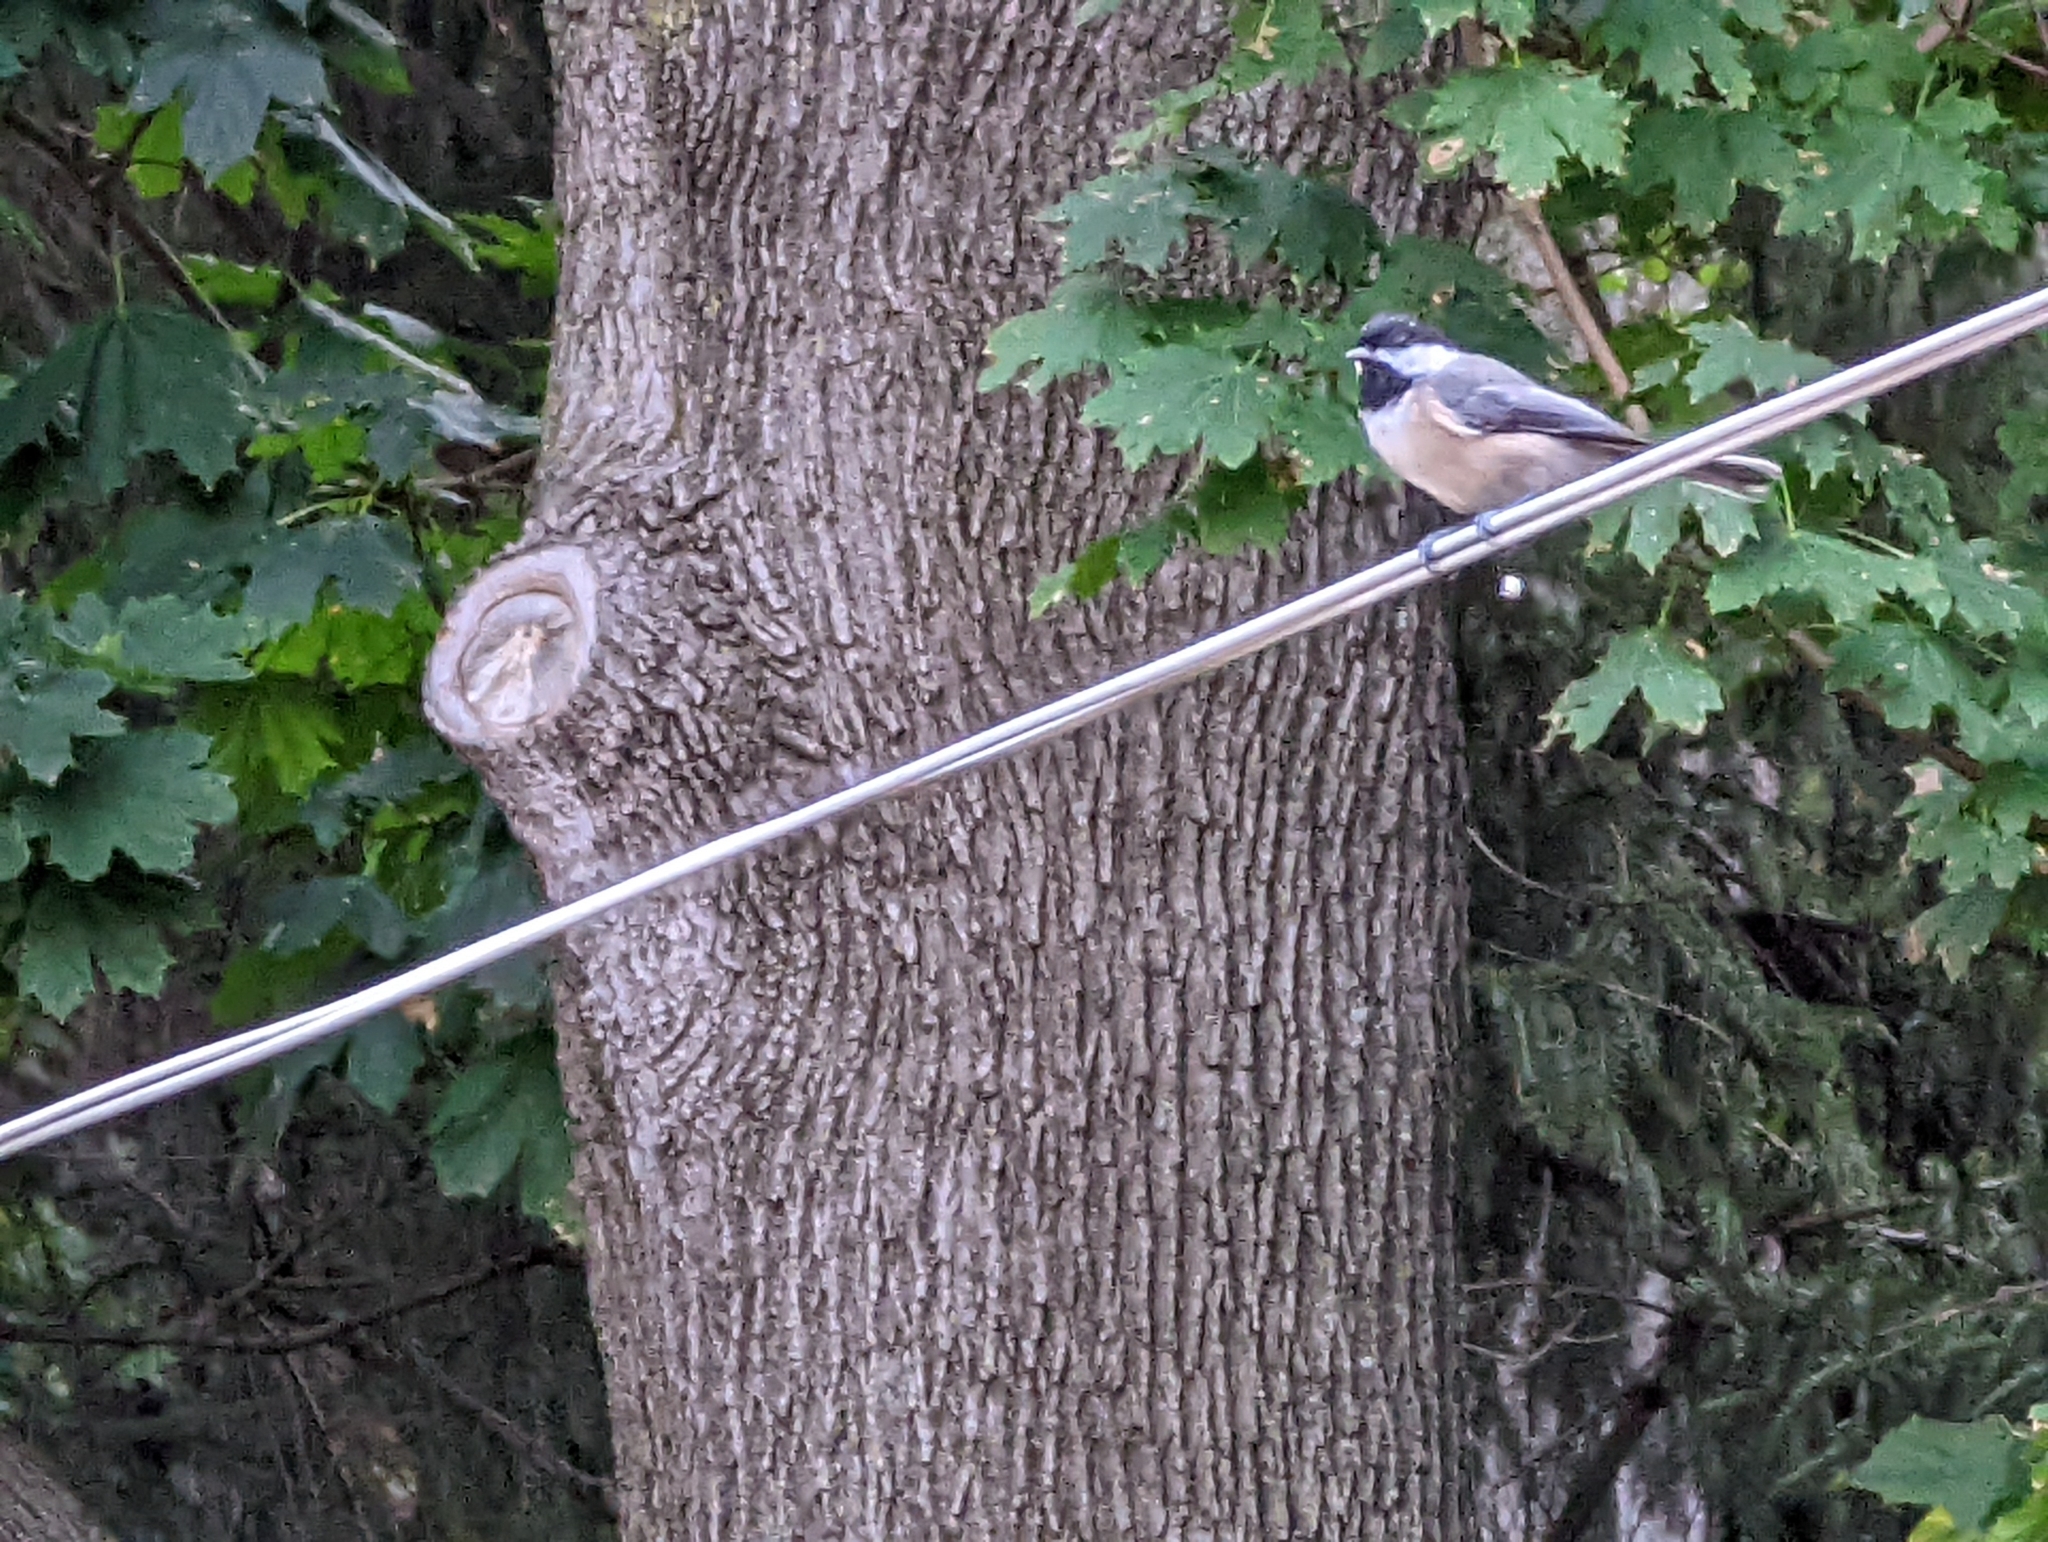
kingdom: Animalia
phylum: Chordata
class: Aves
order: Passeriformes
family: Paridae
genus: Poecile
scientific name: Poecile carolinensis
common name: Carolina chickadee
